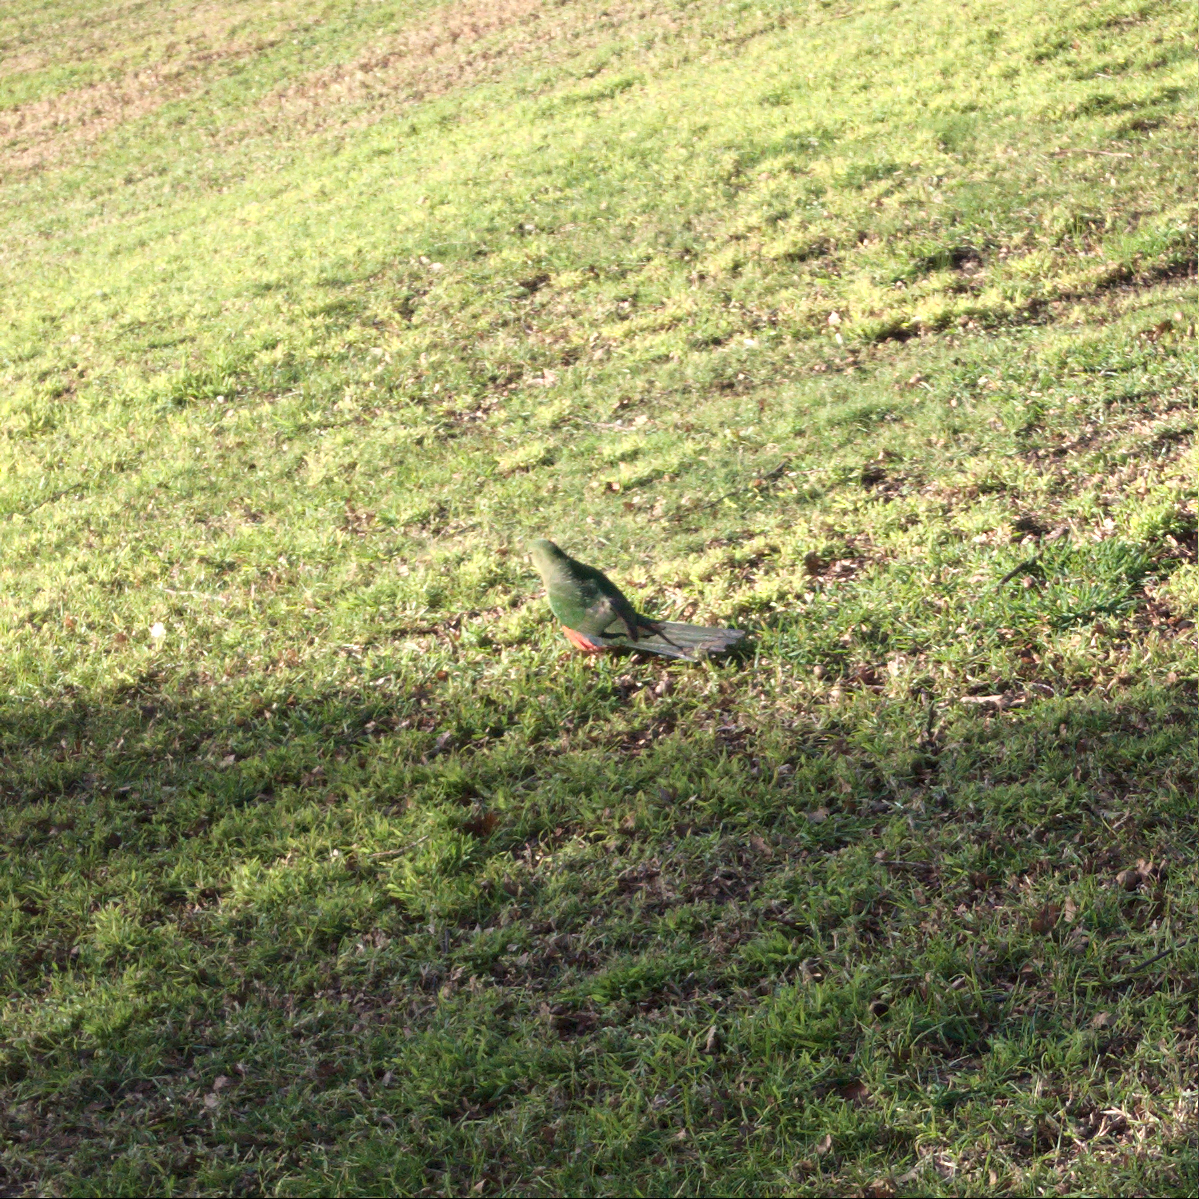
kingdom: Animalia
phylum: Chordata
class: Aves
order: Psittaciformes
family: Psittacidae
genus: Alisterus
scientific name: Alisterus scapularis
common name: Australian king parrot
